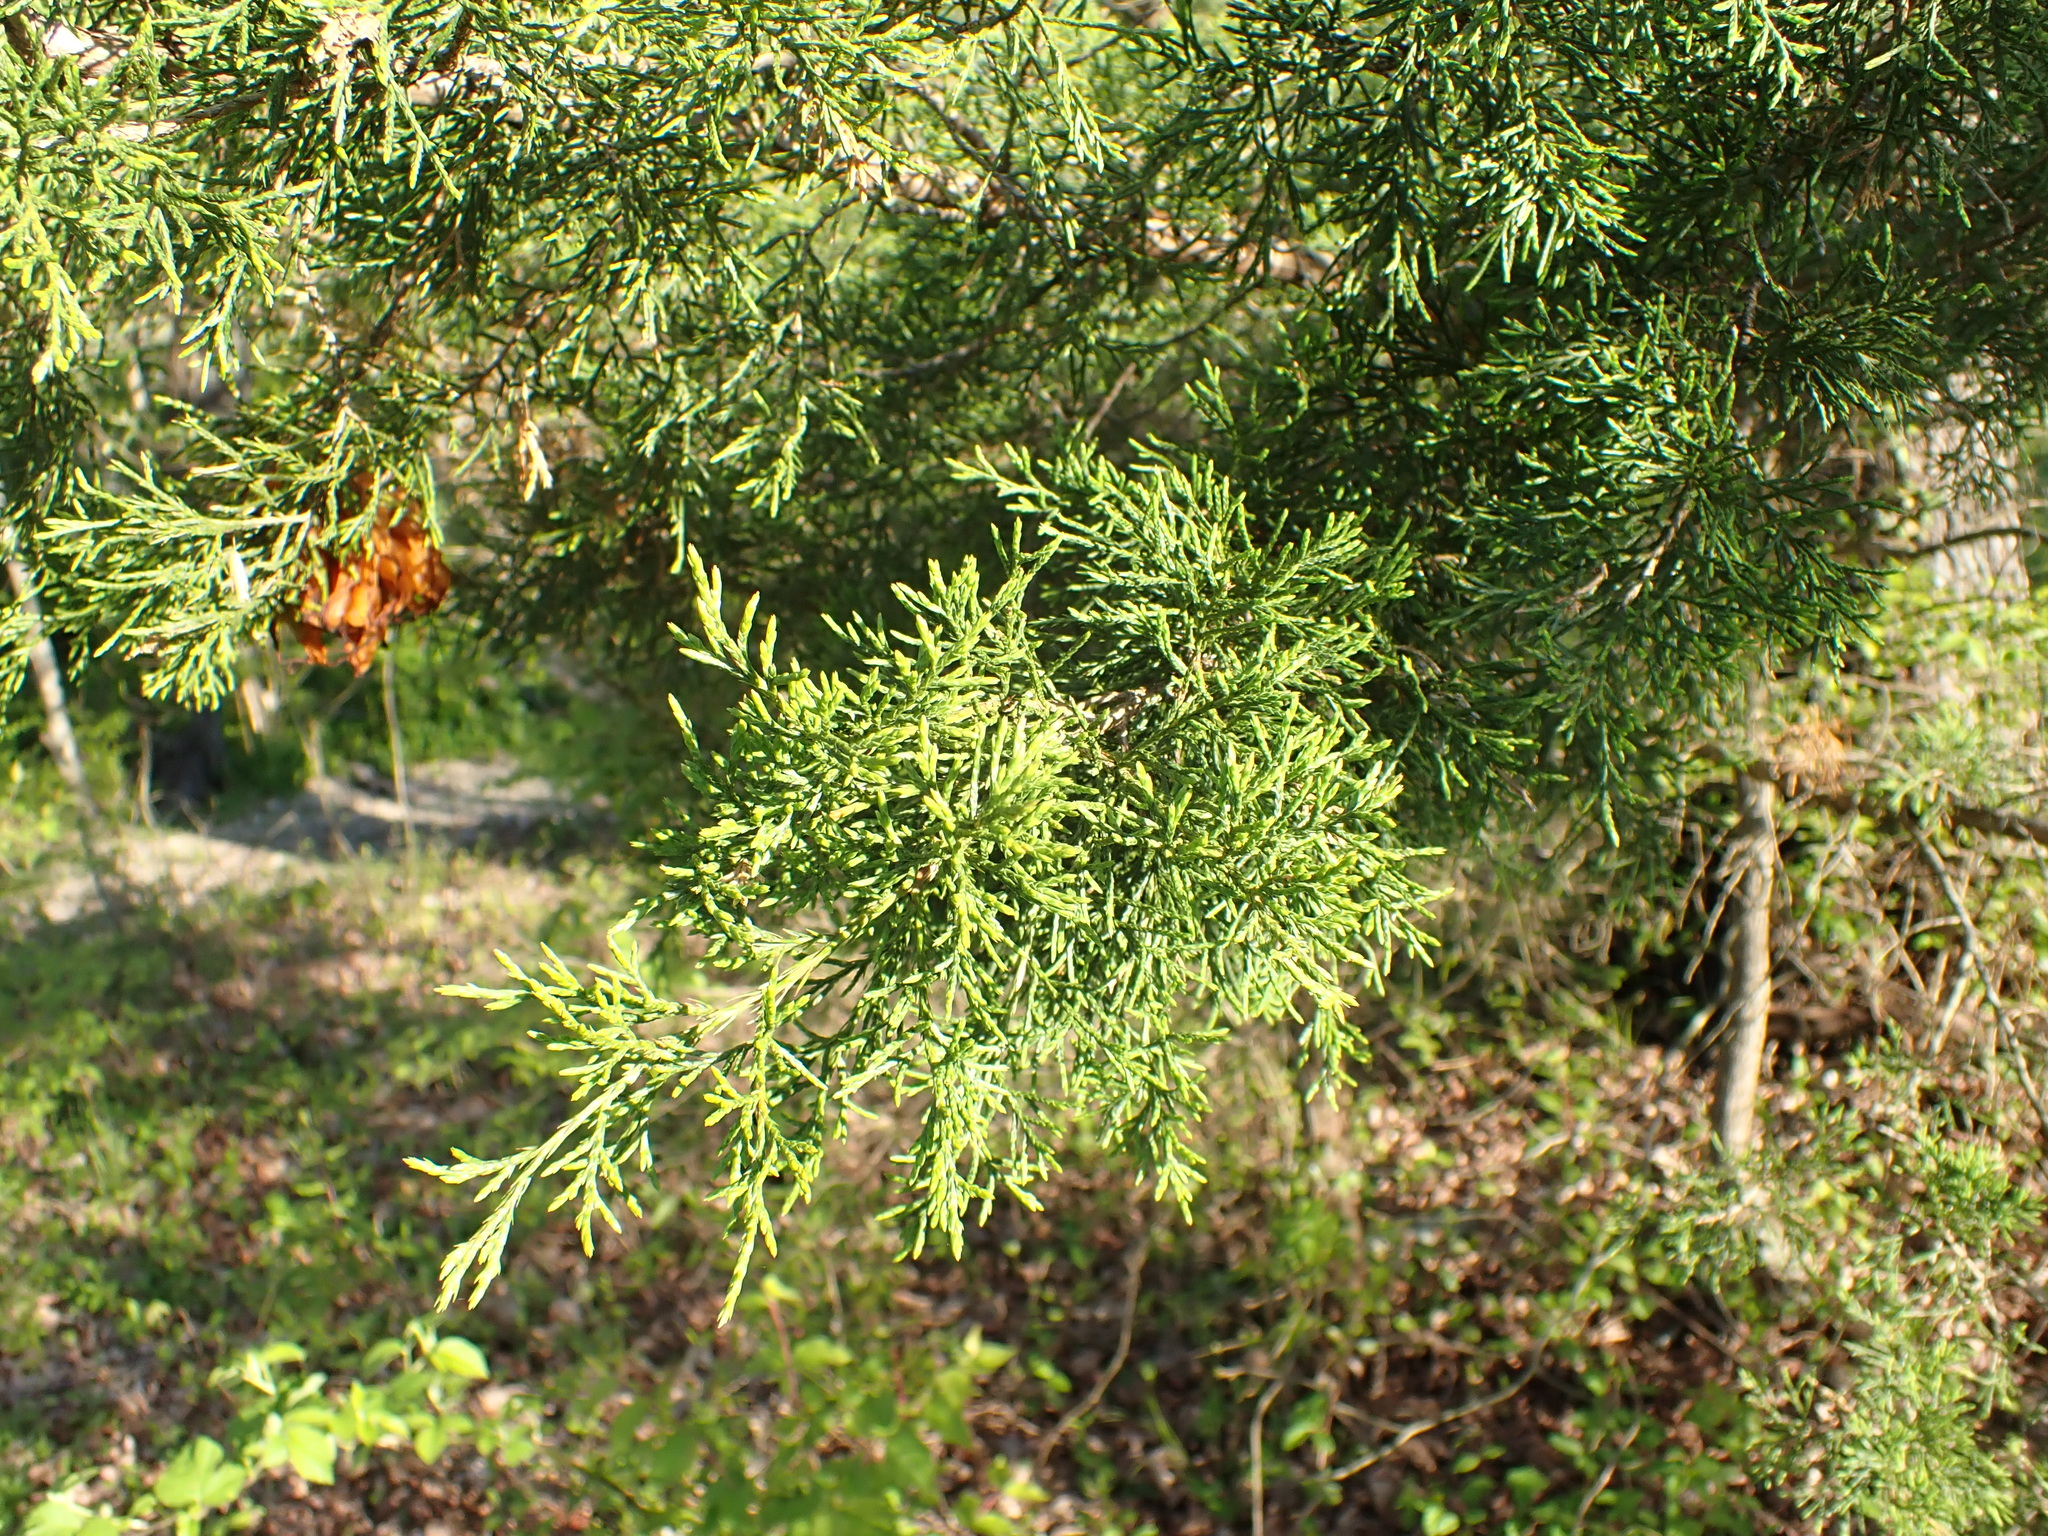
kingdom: Plantae
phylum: Tracheophyta
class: Pinopsida
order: Pinales
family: Cupressaceae
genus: Juniperus
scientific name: Juniperus virginiana
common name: Red juniper
